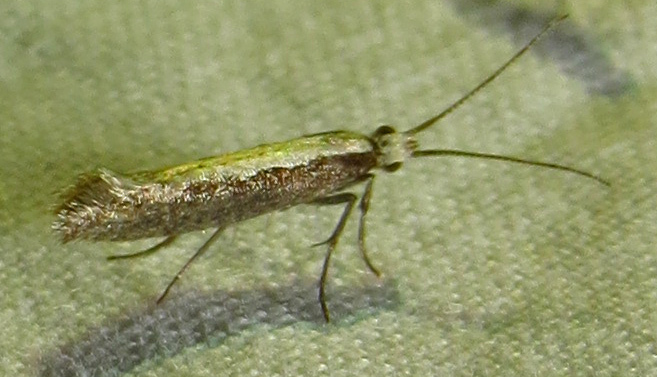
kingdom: Animalia
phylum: Arthropoda
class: Insecta
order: Lepidoptera
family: Plutellidae
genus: Plutella
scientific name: Plutella xylostella
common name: Diamond-back moth
